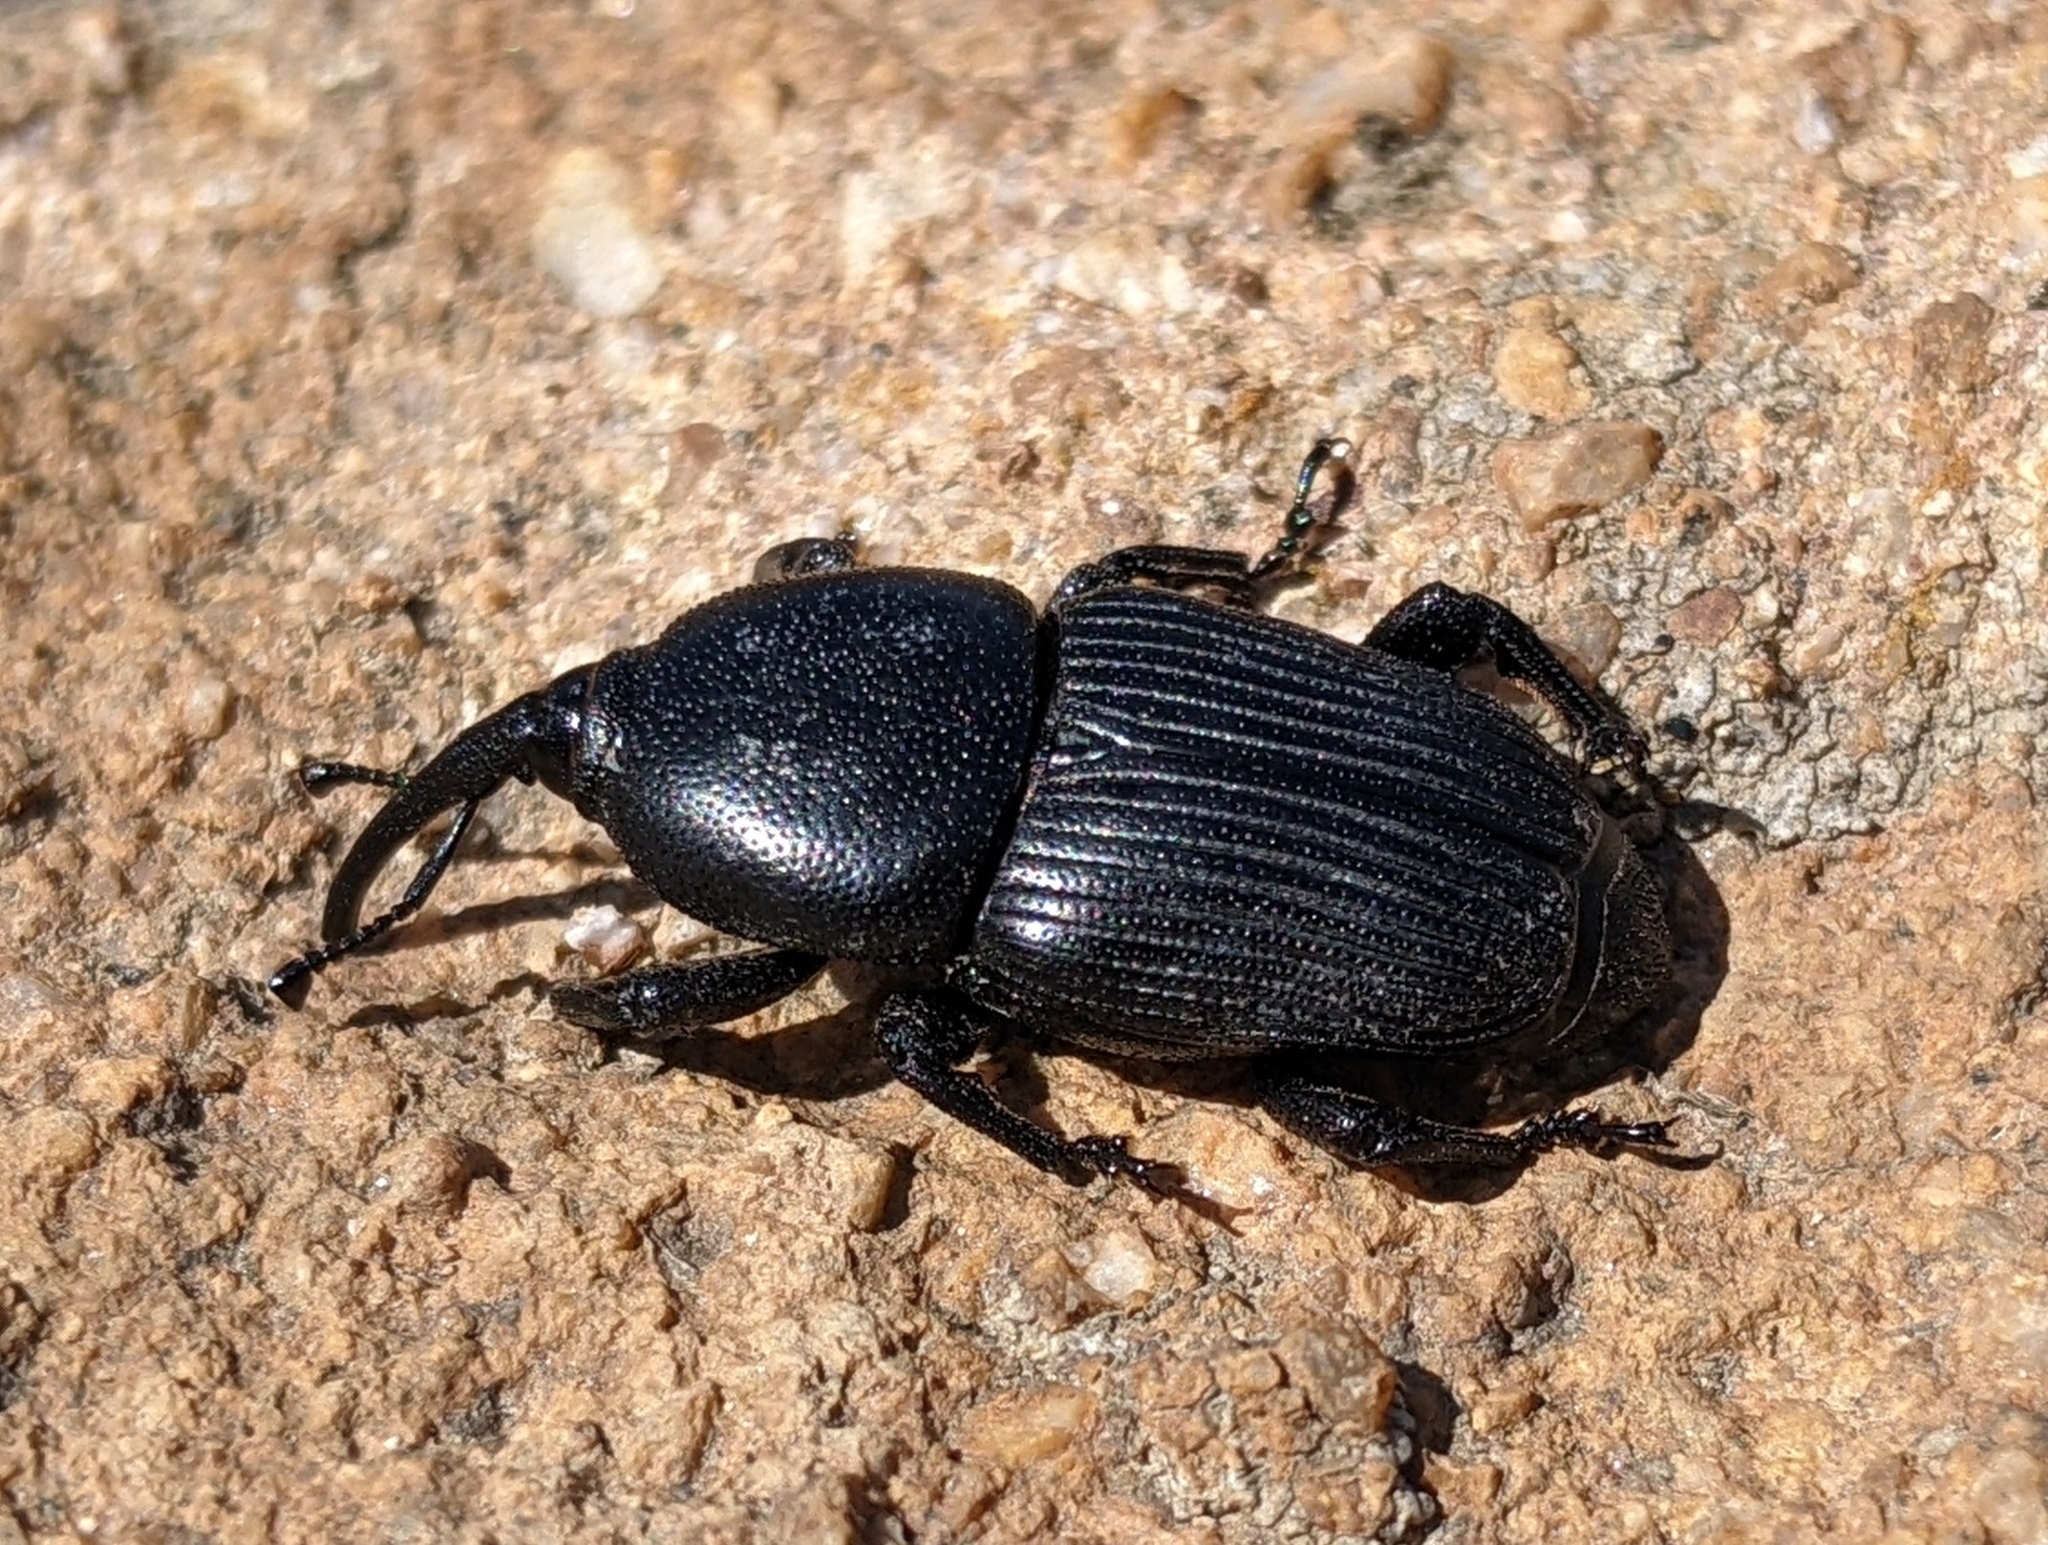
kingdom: Animalia
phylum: Arthropoda
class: Insecta
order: Coleoptera
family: Dryophthoridae
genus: Scyphophorus
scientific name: Scyphophorus yuccae
